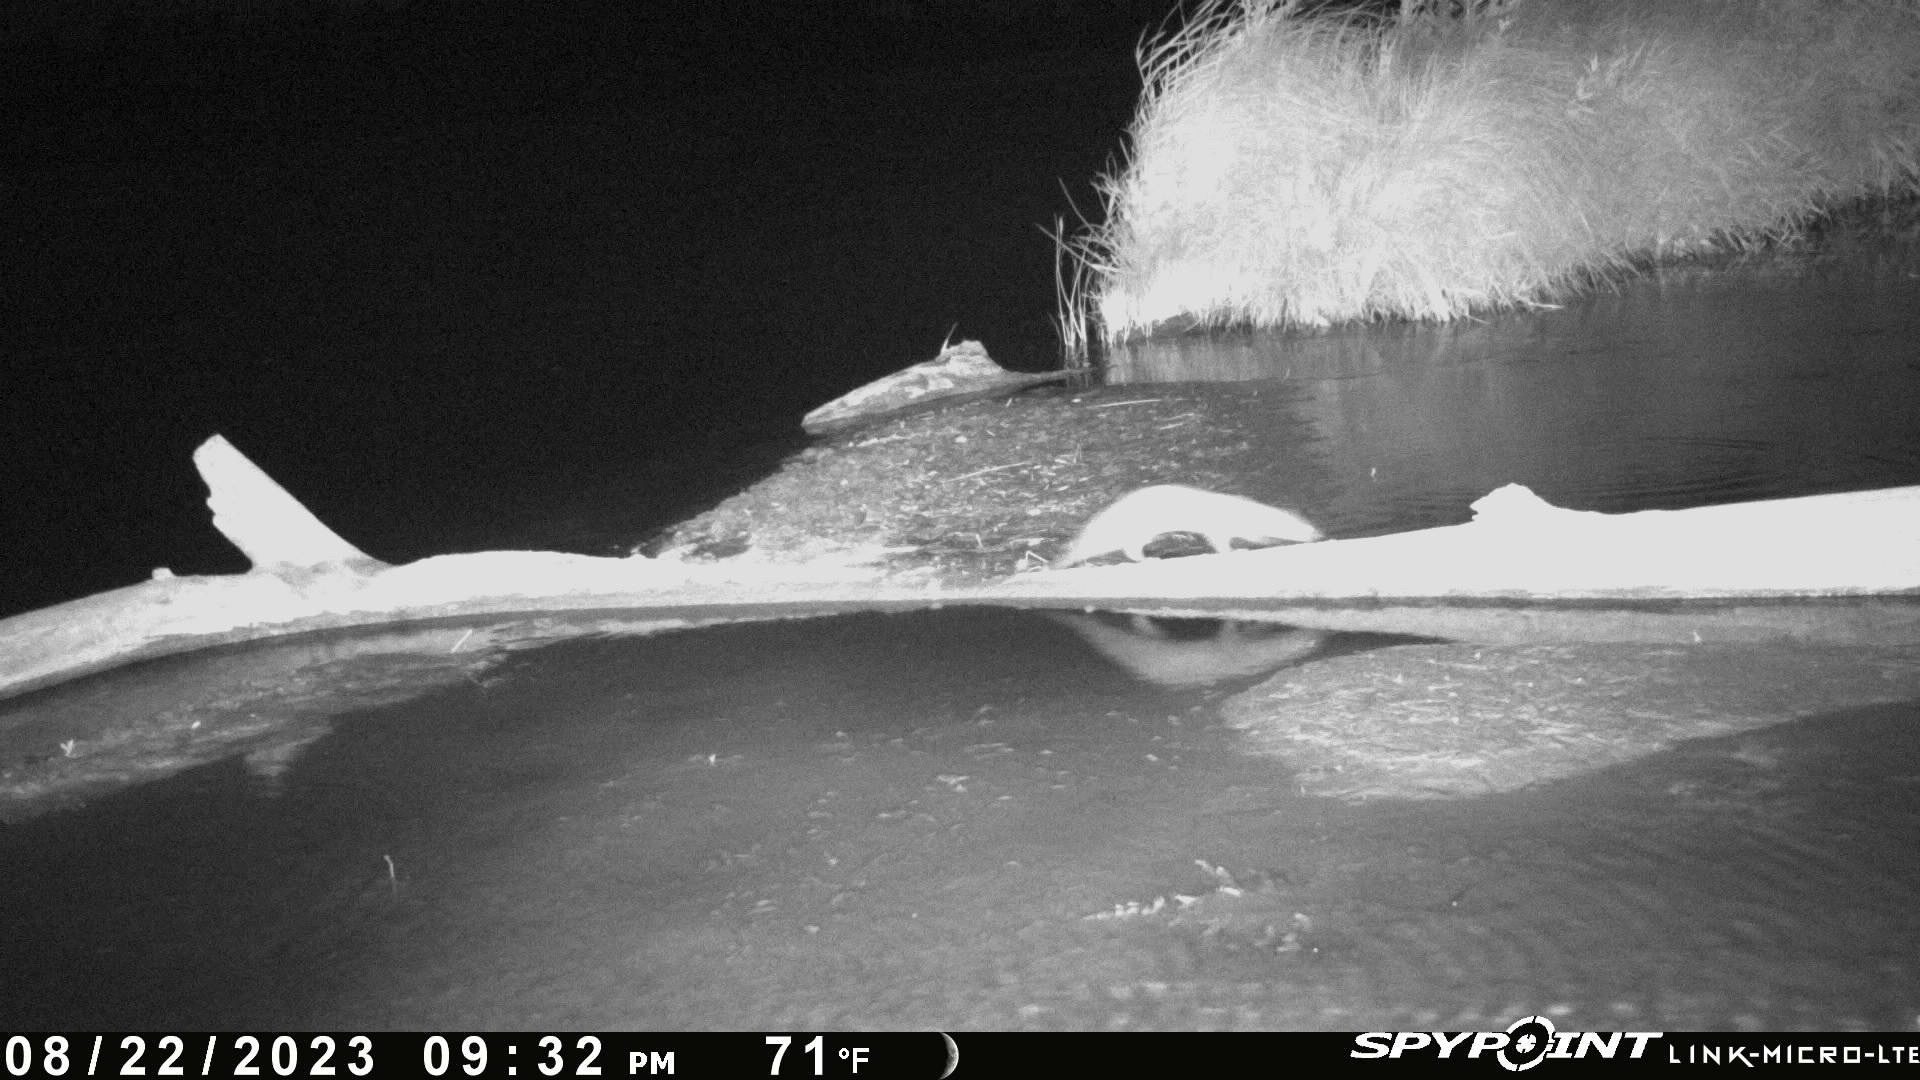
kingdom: Animalia
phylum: Chordata
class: Mammalia
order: Carnivora
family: Mustelidae
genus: Mustela
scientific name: Mustela
